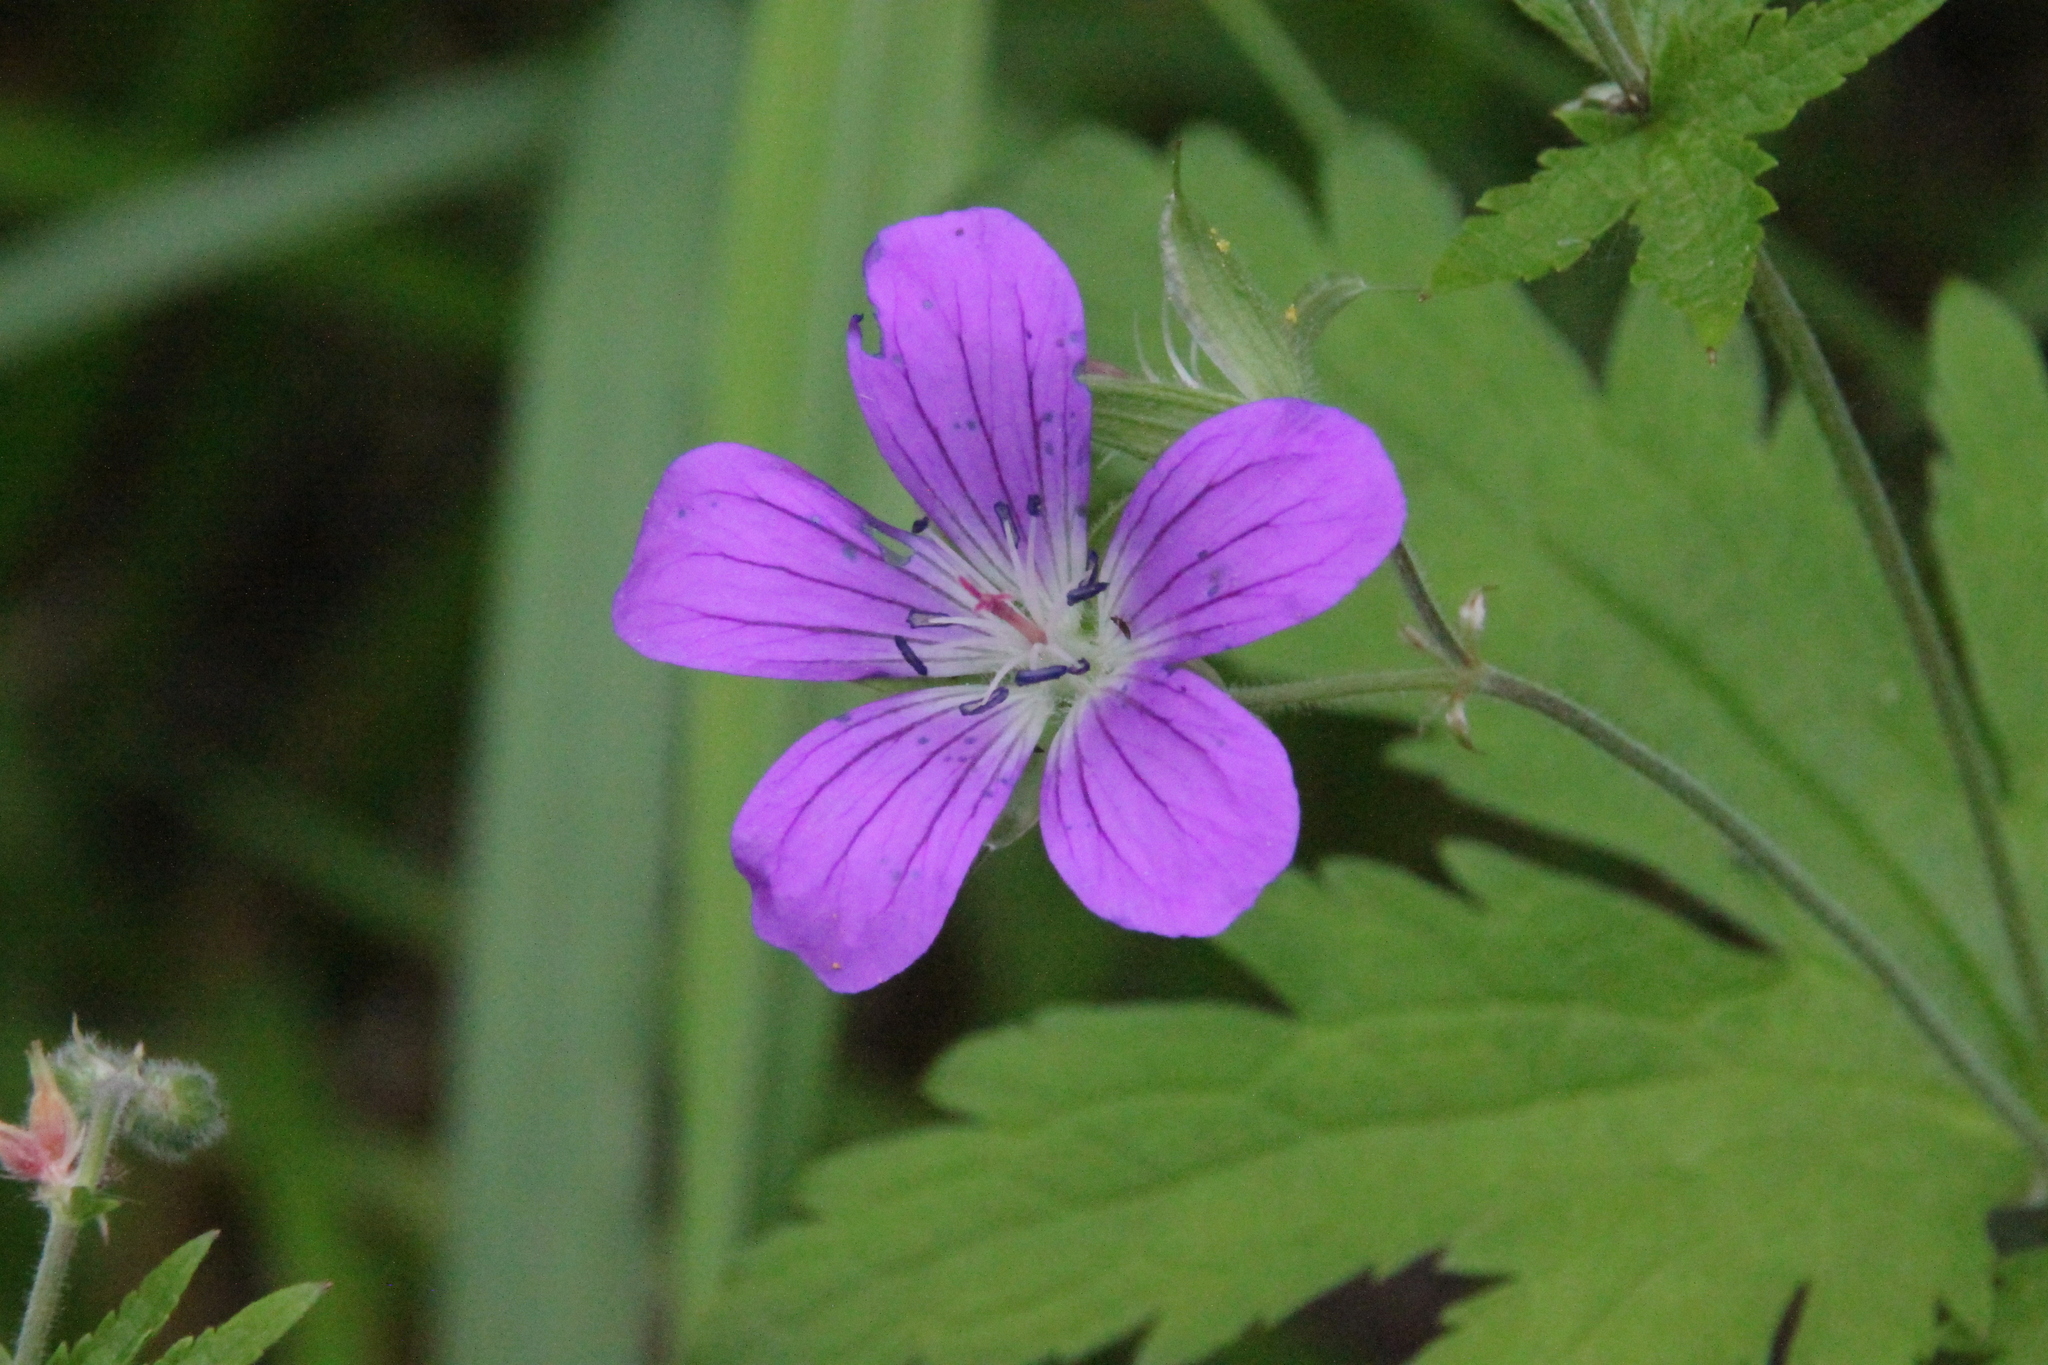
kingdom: Plantae
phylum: Tracheophyta
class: Magnoliopsida
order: Geraniales
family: Geraniaceae
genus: Geranium
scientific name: Geranium sylvaticum
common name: Wood crane's-bill
